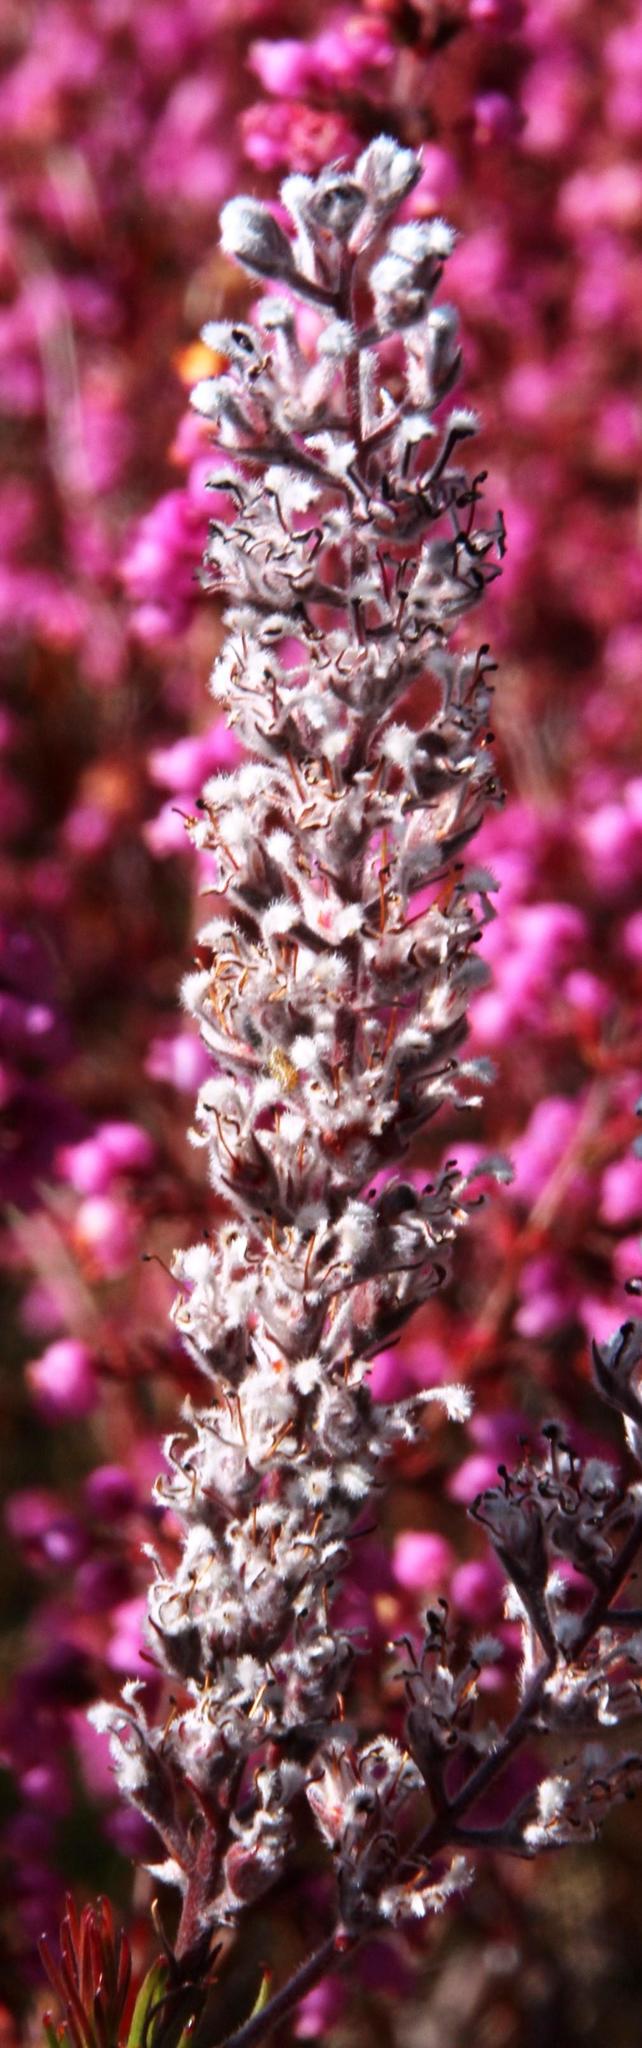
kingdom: Plantae
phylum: Tracheophyta
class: Magnoliopsida
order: Proteales
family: Proteaceae
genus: Spatalla
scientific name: Spatalla propinqua
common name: Lax spoon
